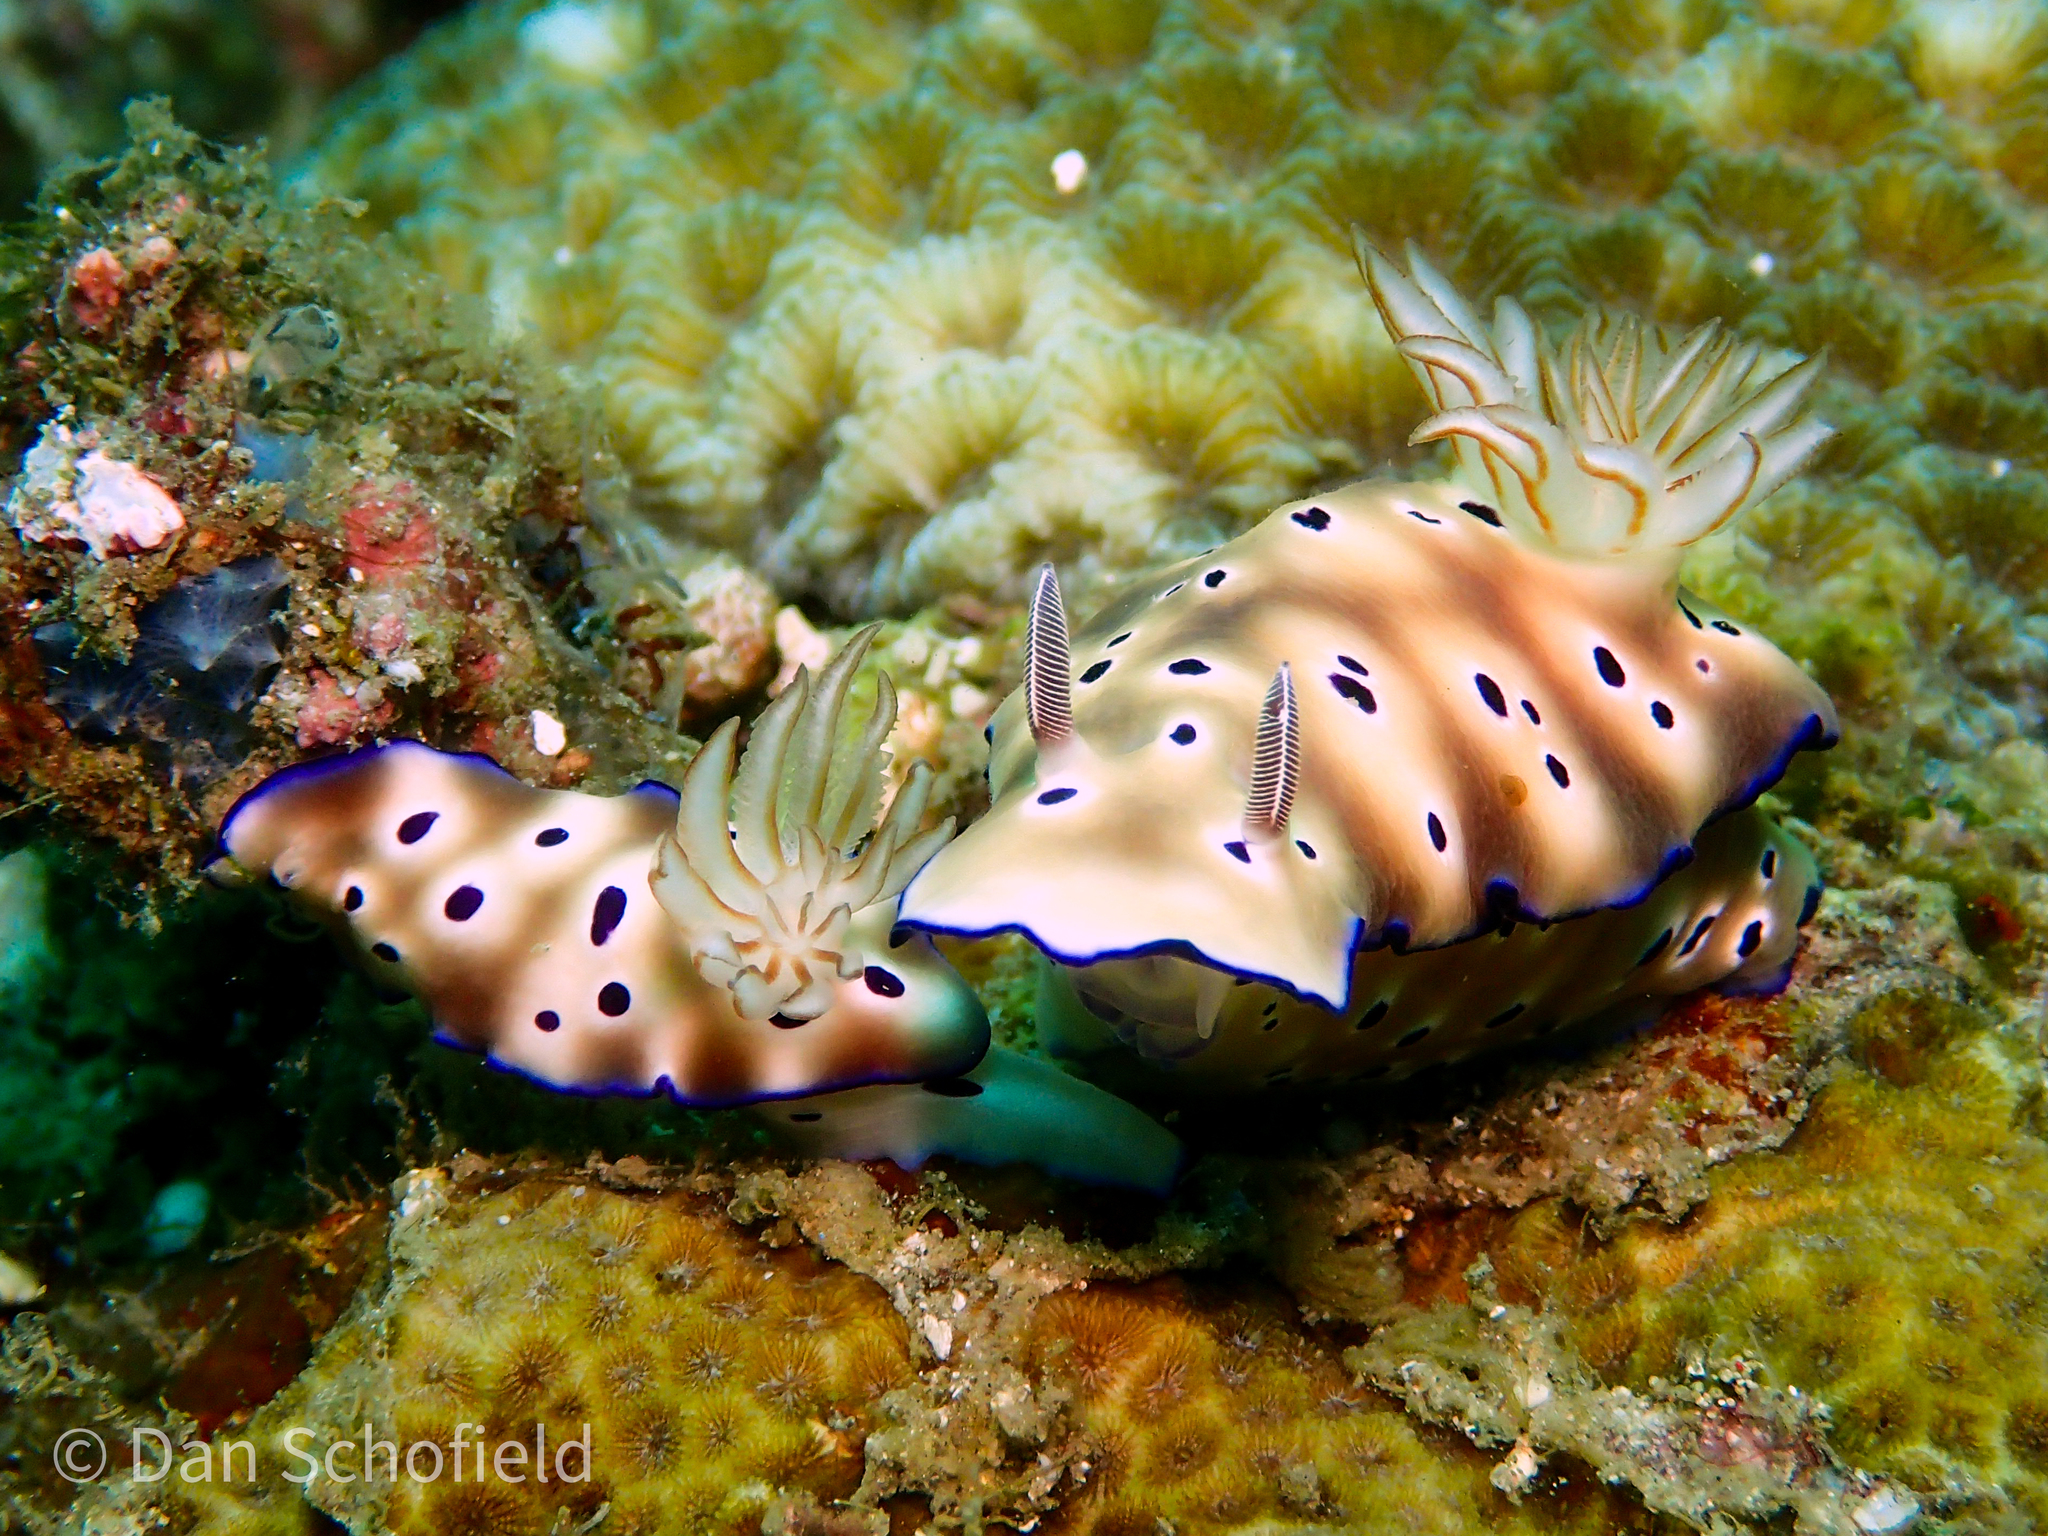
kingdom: Animalia
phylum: Mollusca
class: Gastropoda
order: Nudibranchia
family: Chromodorididae
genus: Hypselodoris
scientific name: Hypselodoris tryoni
